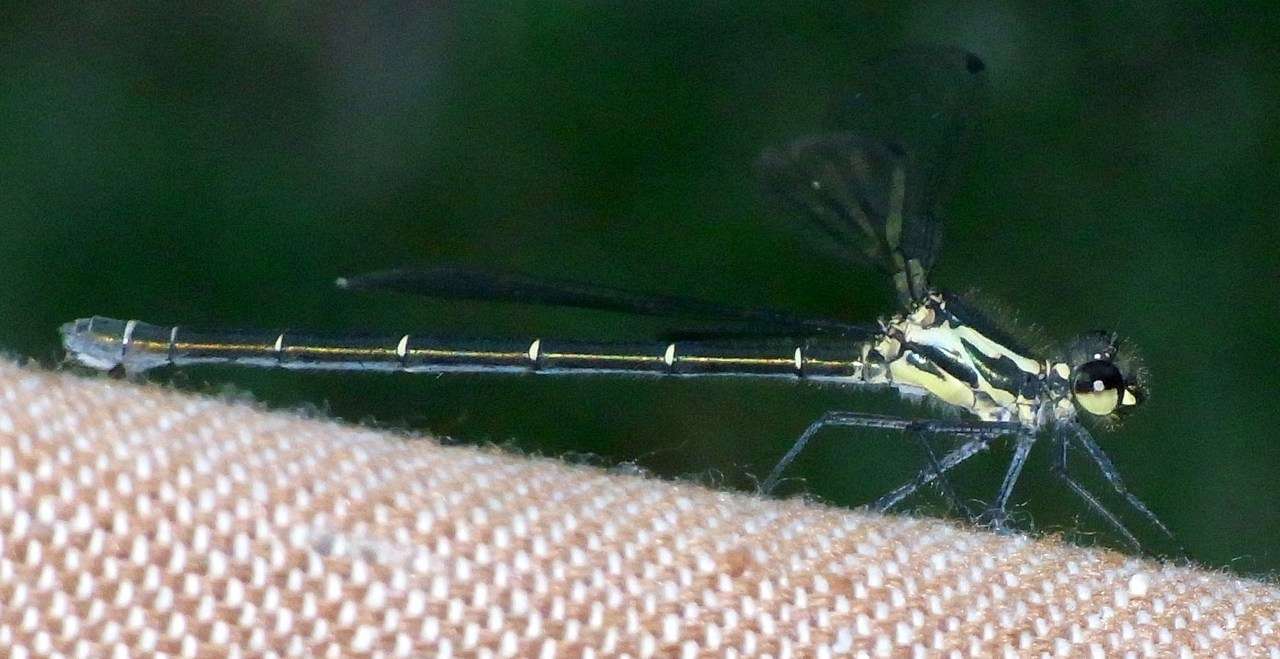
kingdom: Animalia
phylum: Arthropoda
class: Insecta
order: Odonata
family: Argiolestidae
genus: Austroargiolestes
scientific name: Austroargiolestes icteromelas
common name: Common flatwing
